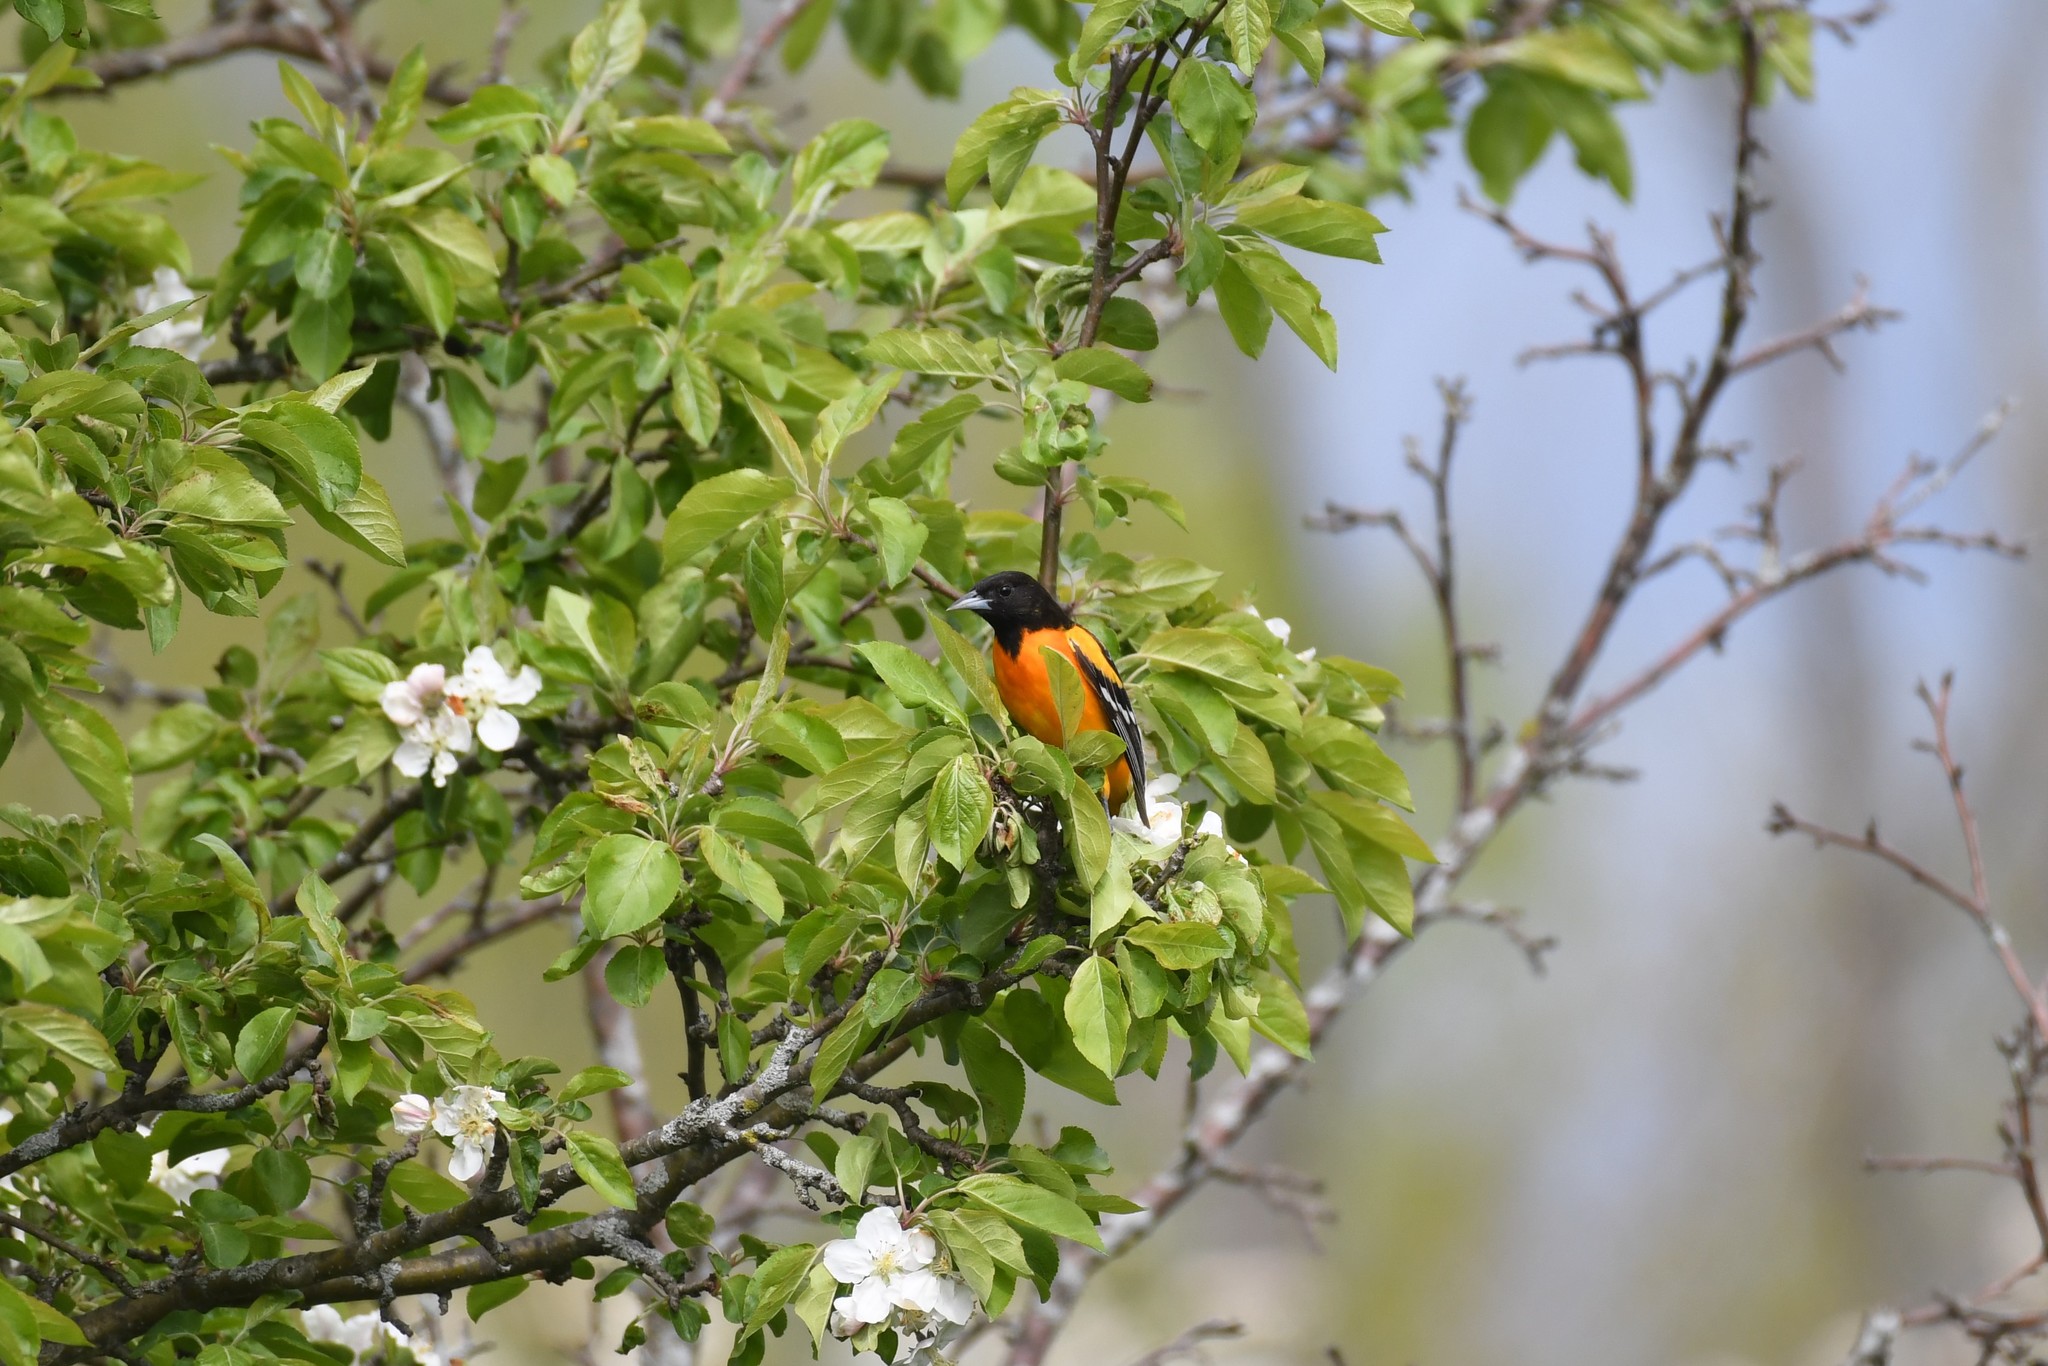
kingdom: Animalia
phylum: Chordata
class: Aves
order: Passeriformes
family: Icteridae
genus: Icterus
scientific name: Icterus galbula
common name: Baltimore oriole
